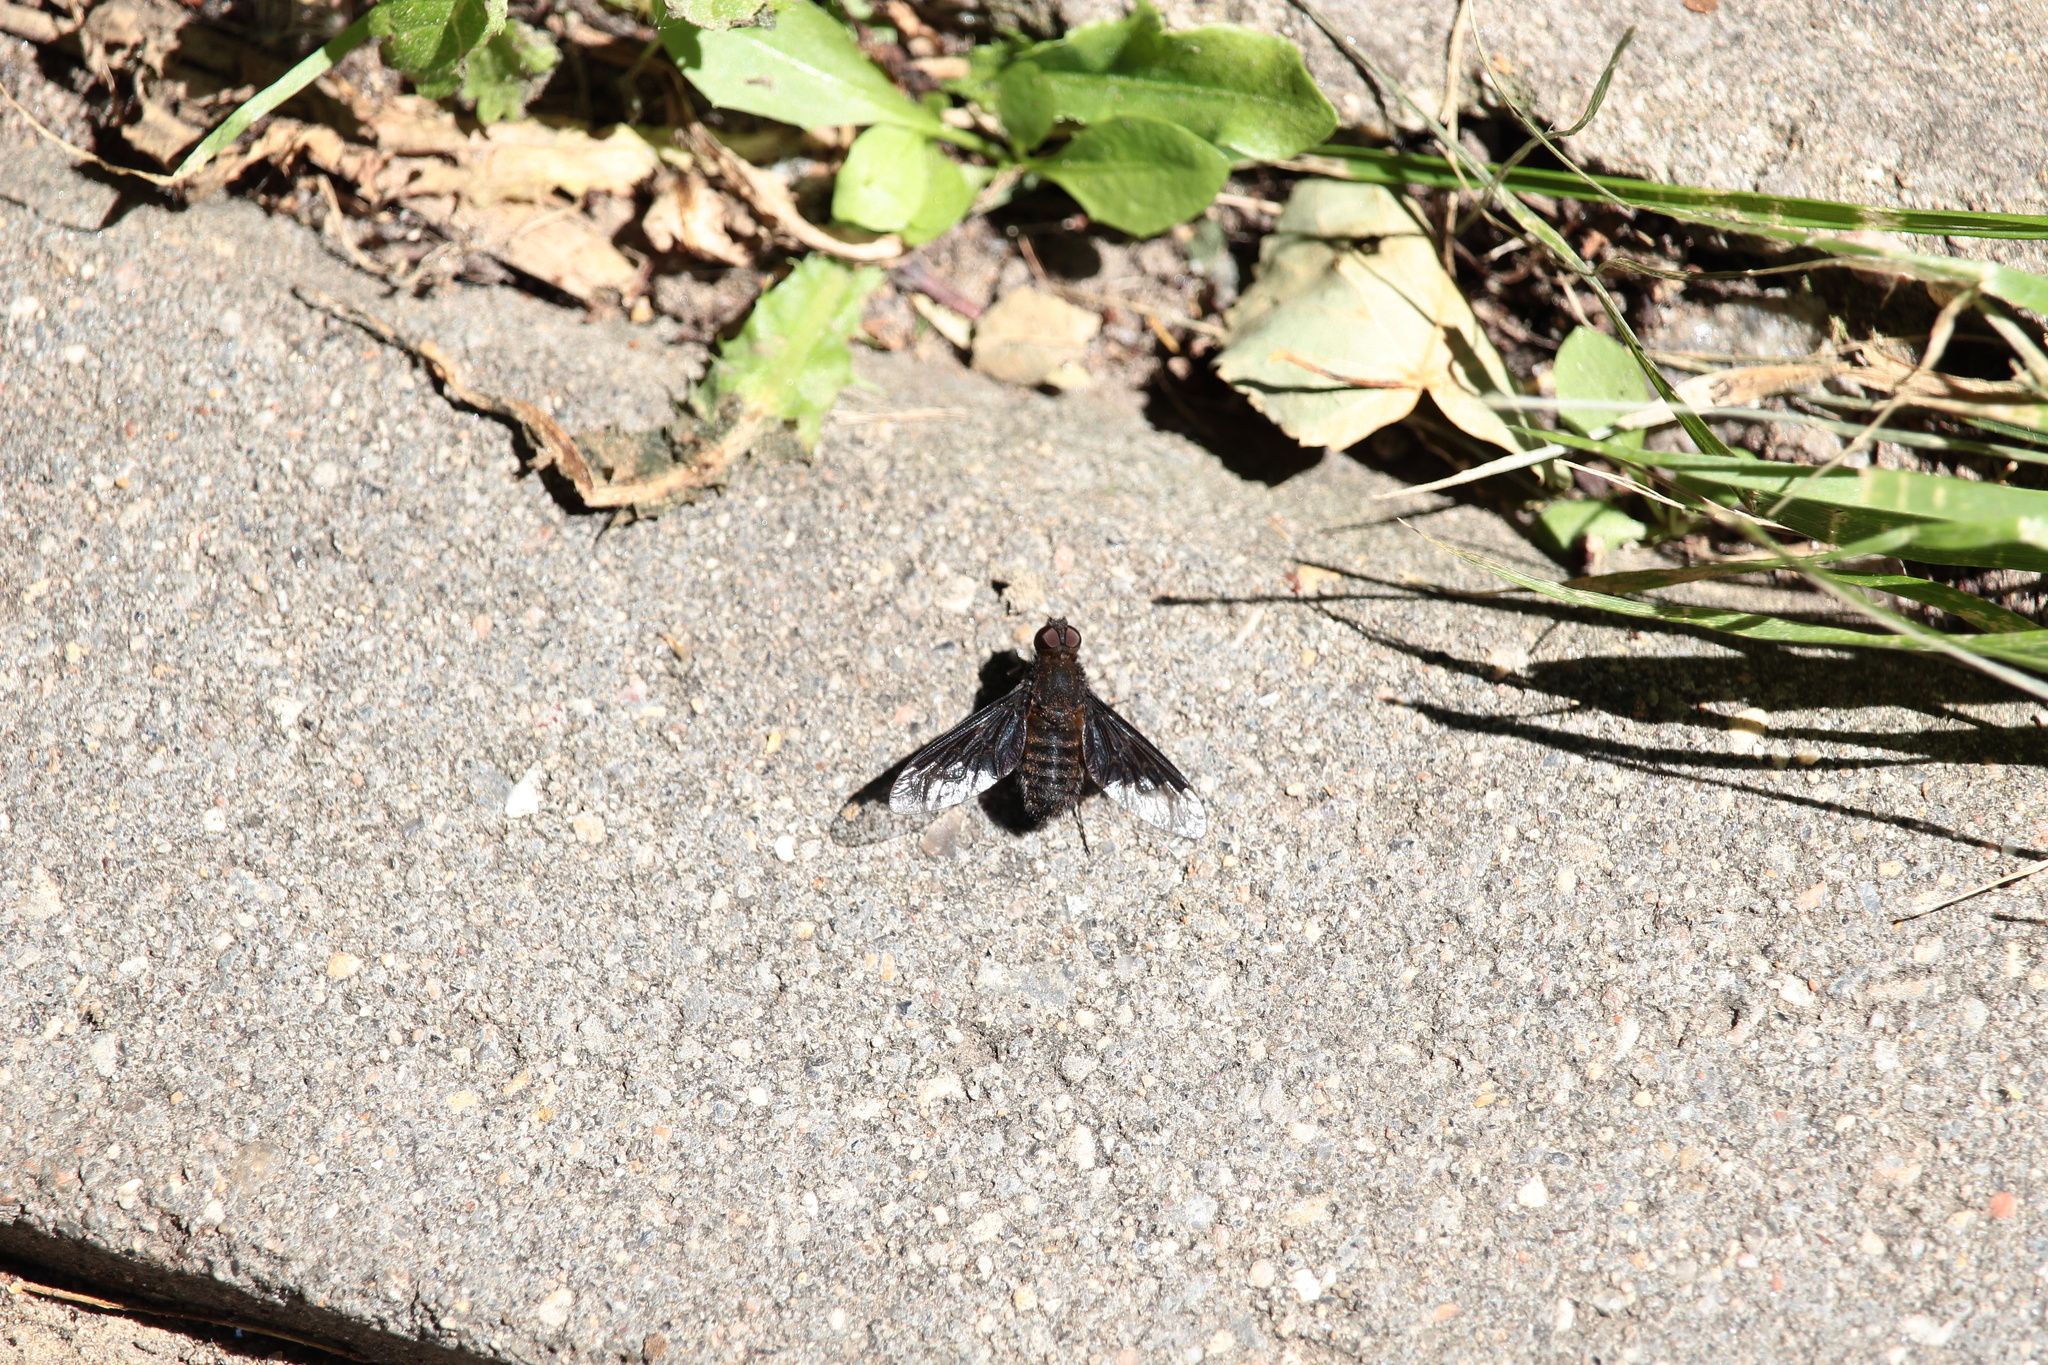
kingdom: Animalia
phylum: Arthropoda
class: Insecta
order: Diptera
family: Bombyliidae
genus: Hemipenthes
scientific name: Hemipenthes morio
